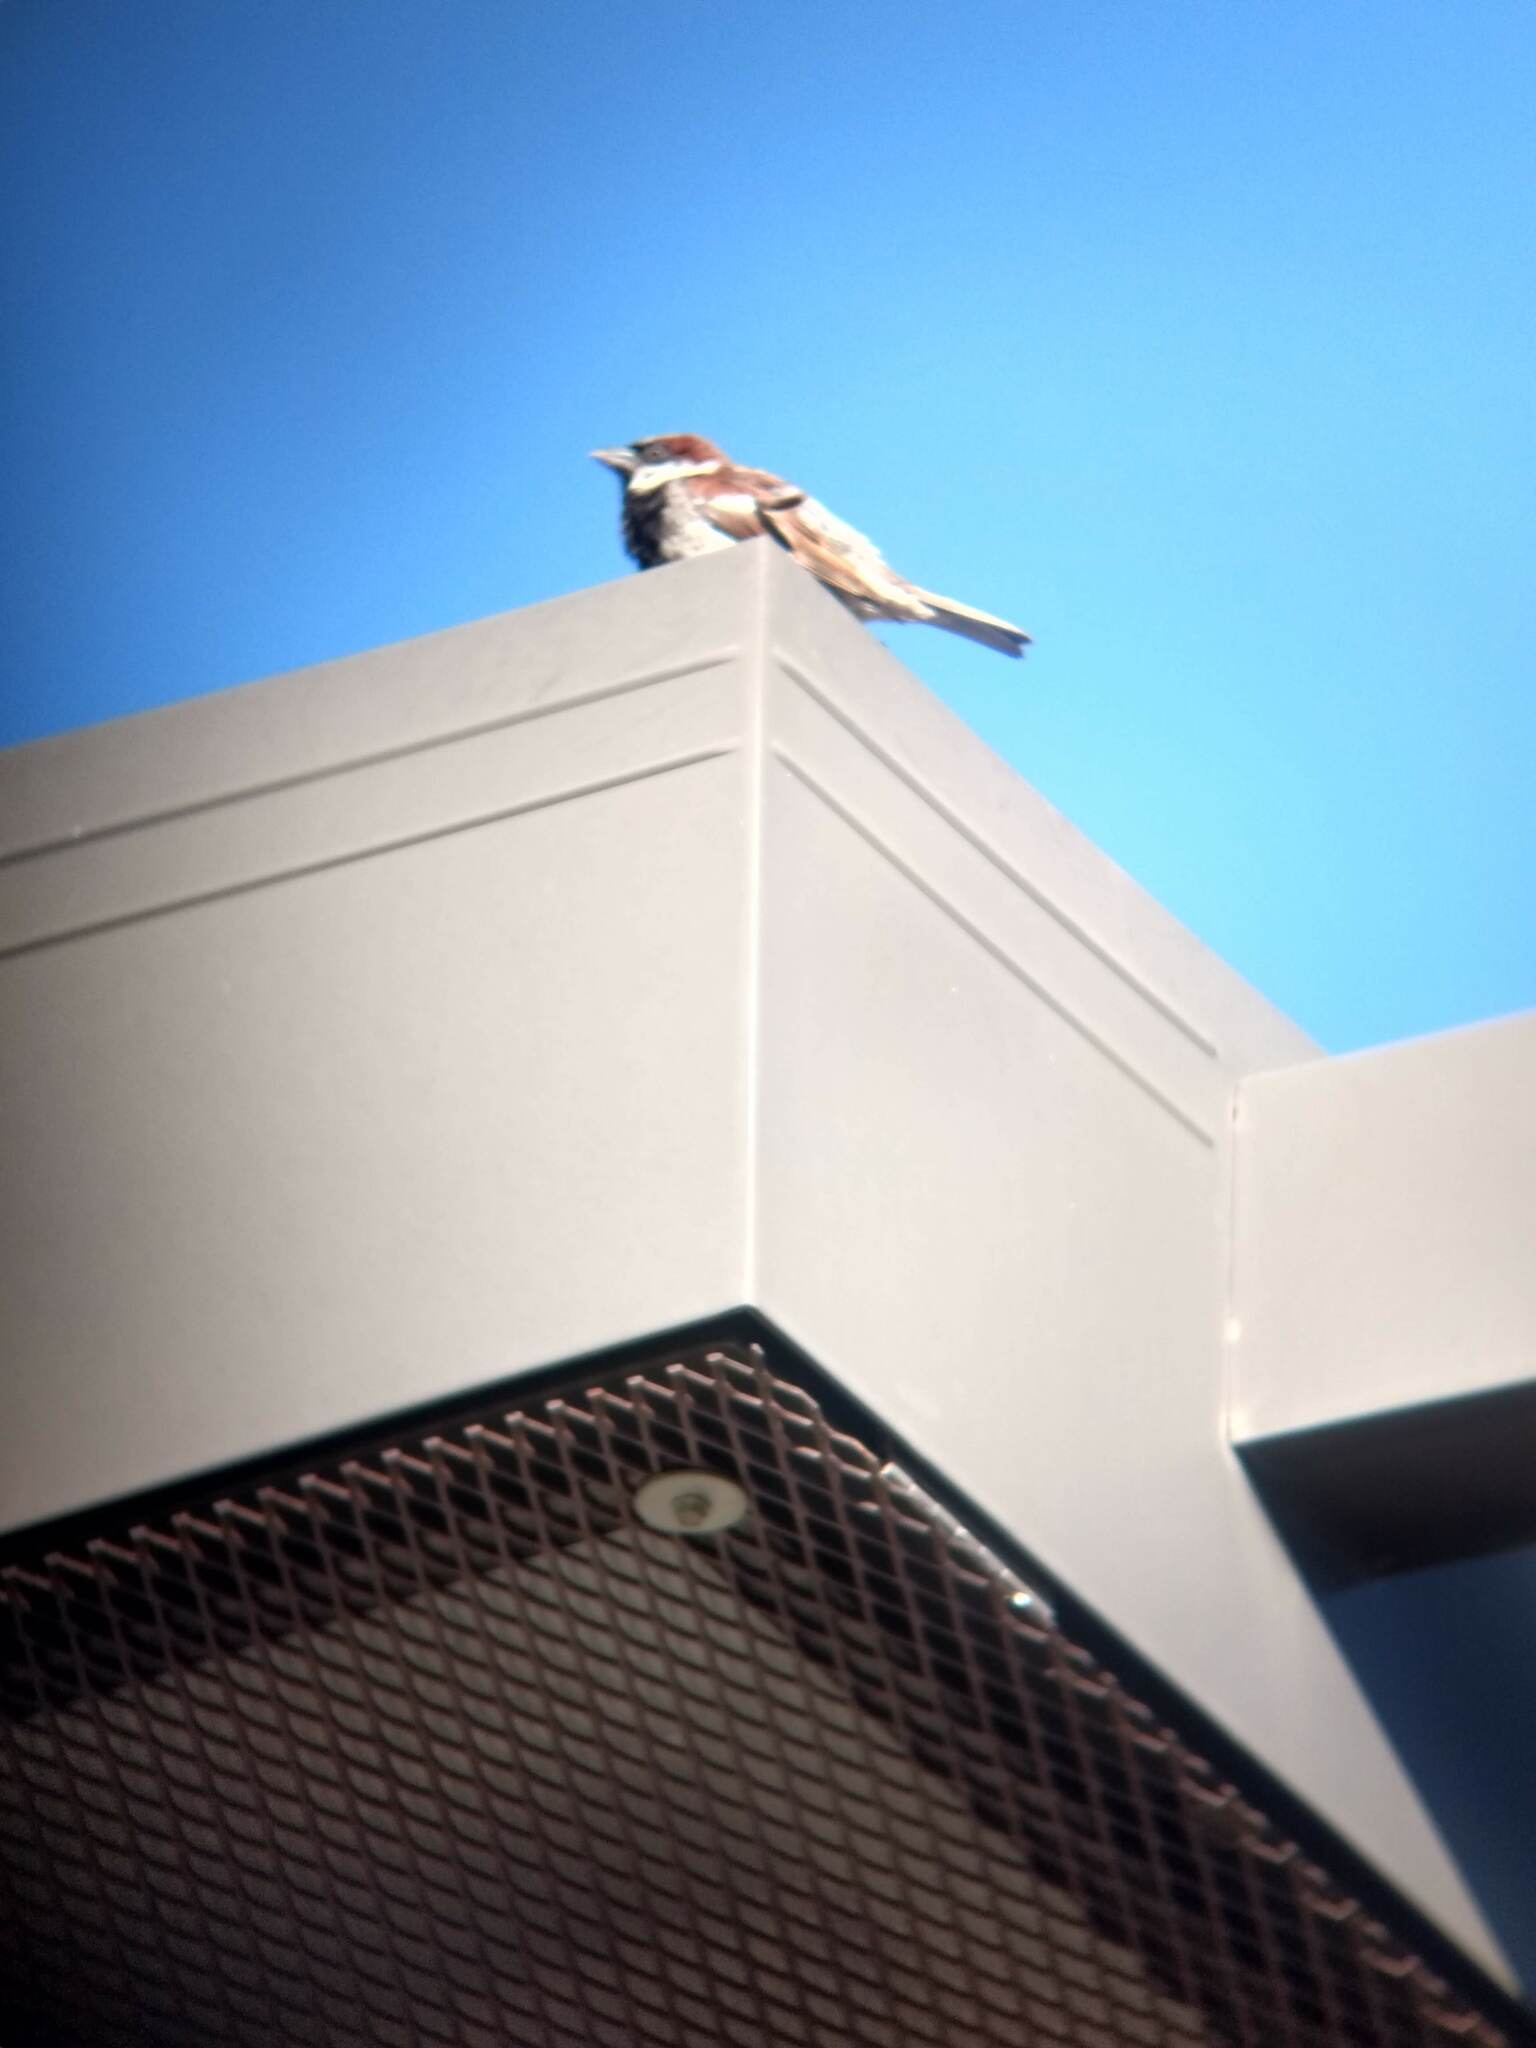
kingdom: Animalia
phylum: Chordata
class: Aves
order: Passeriformes
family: Passeridae
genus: Passer
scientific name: Passer domesticus
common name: House sparrow
